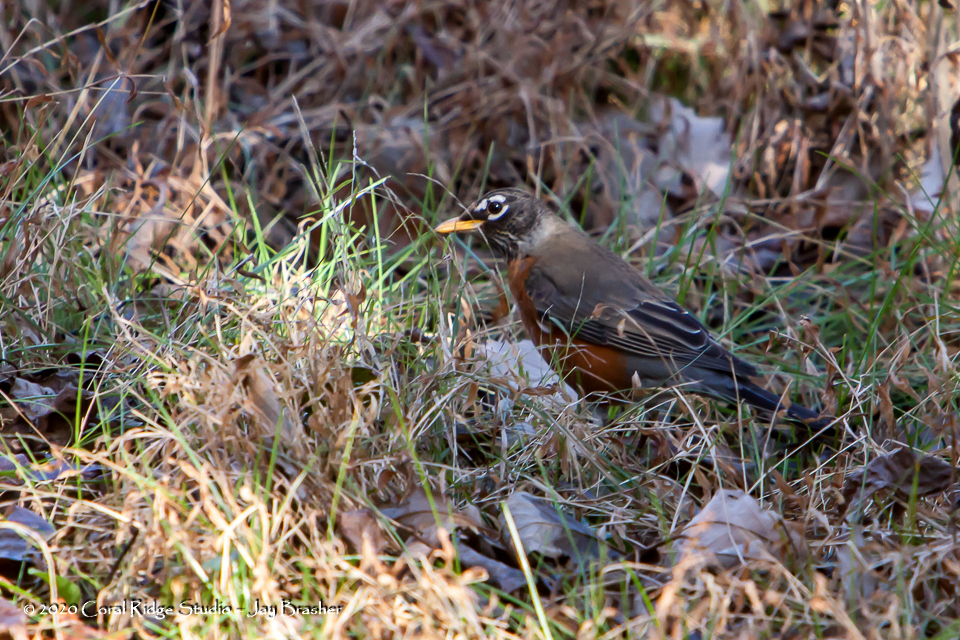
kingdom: Animalia
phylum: Chordata
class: Aves
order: Passeriformes
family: Turdidae
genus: Turdus
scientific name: Turdus migratorius
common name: American robin
